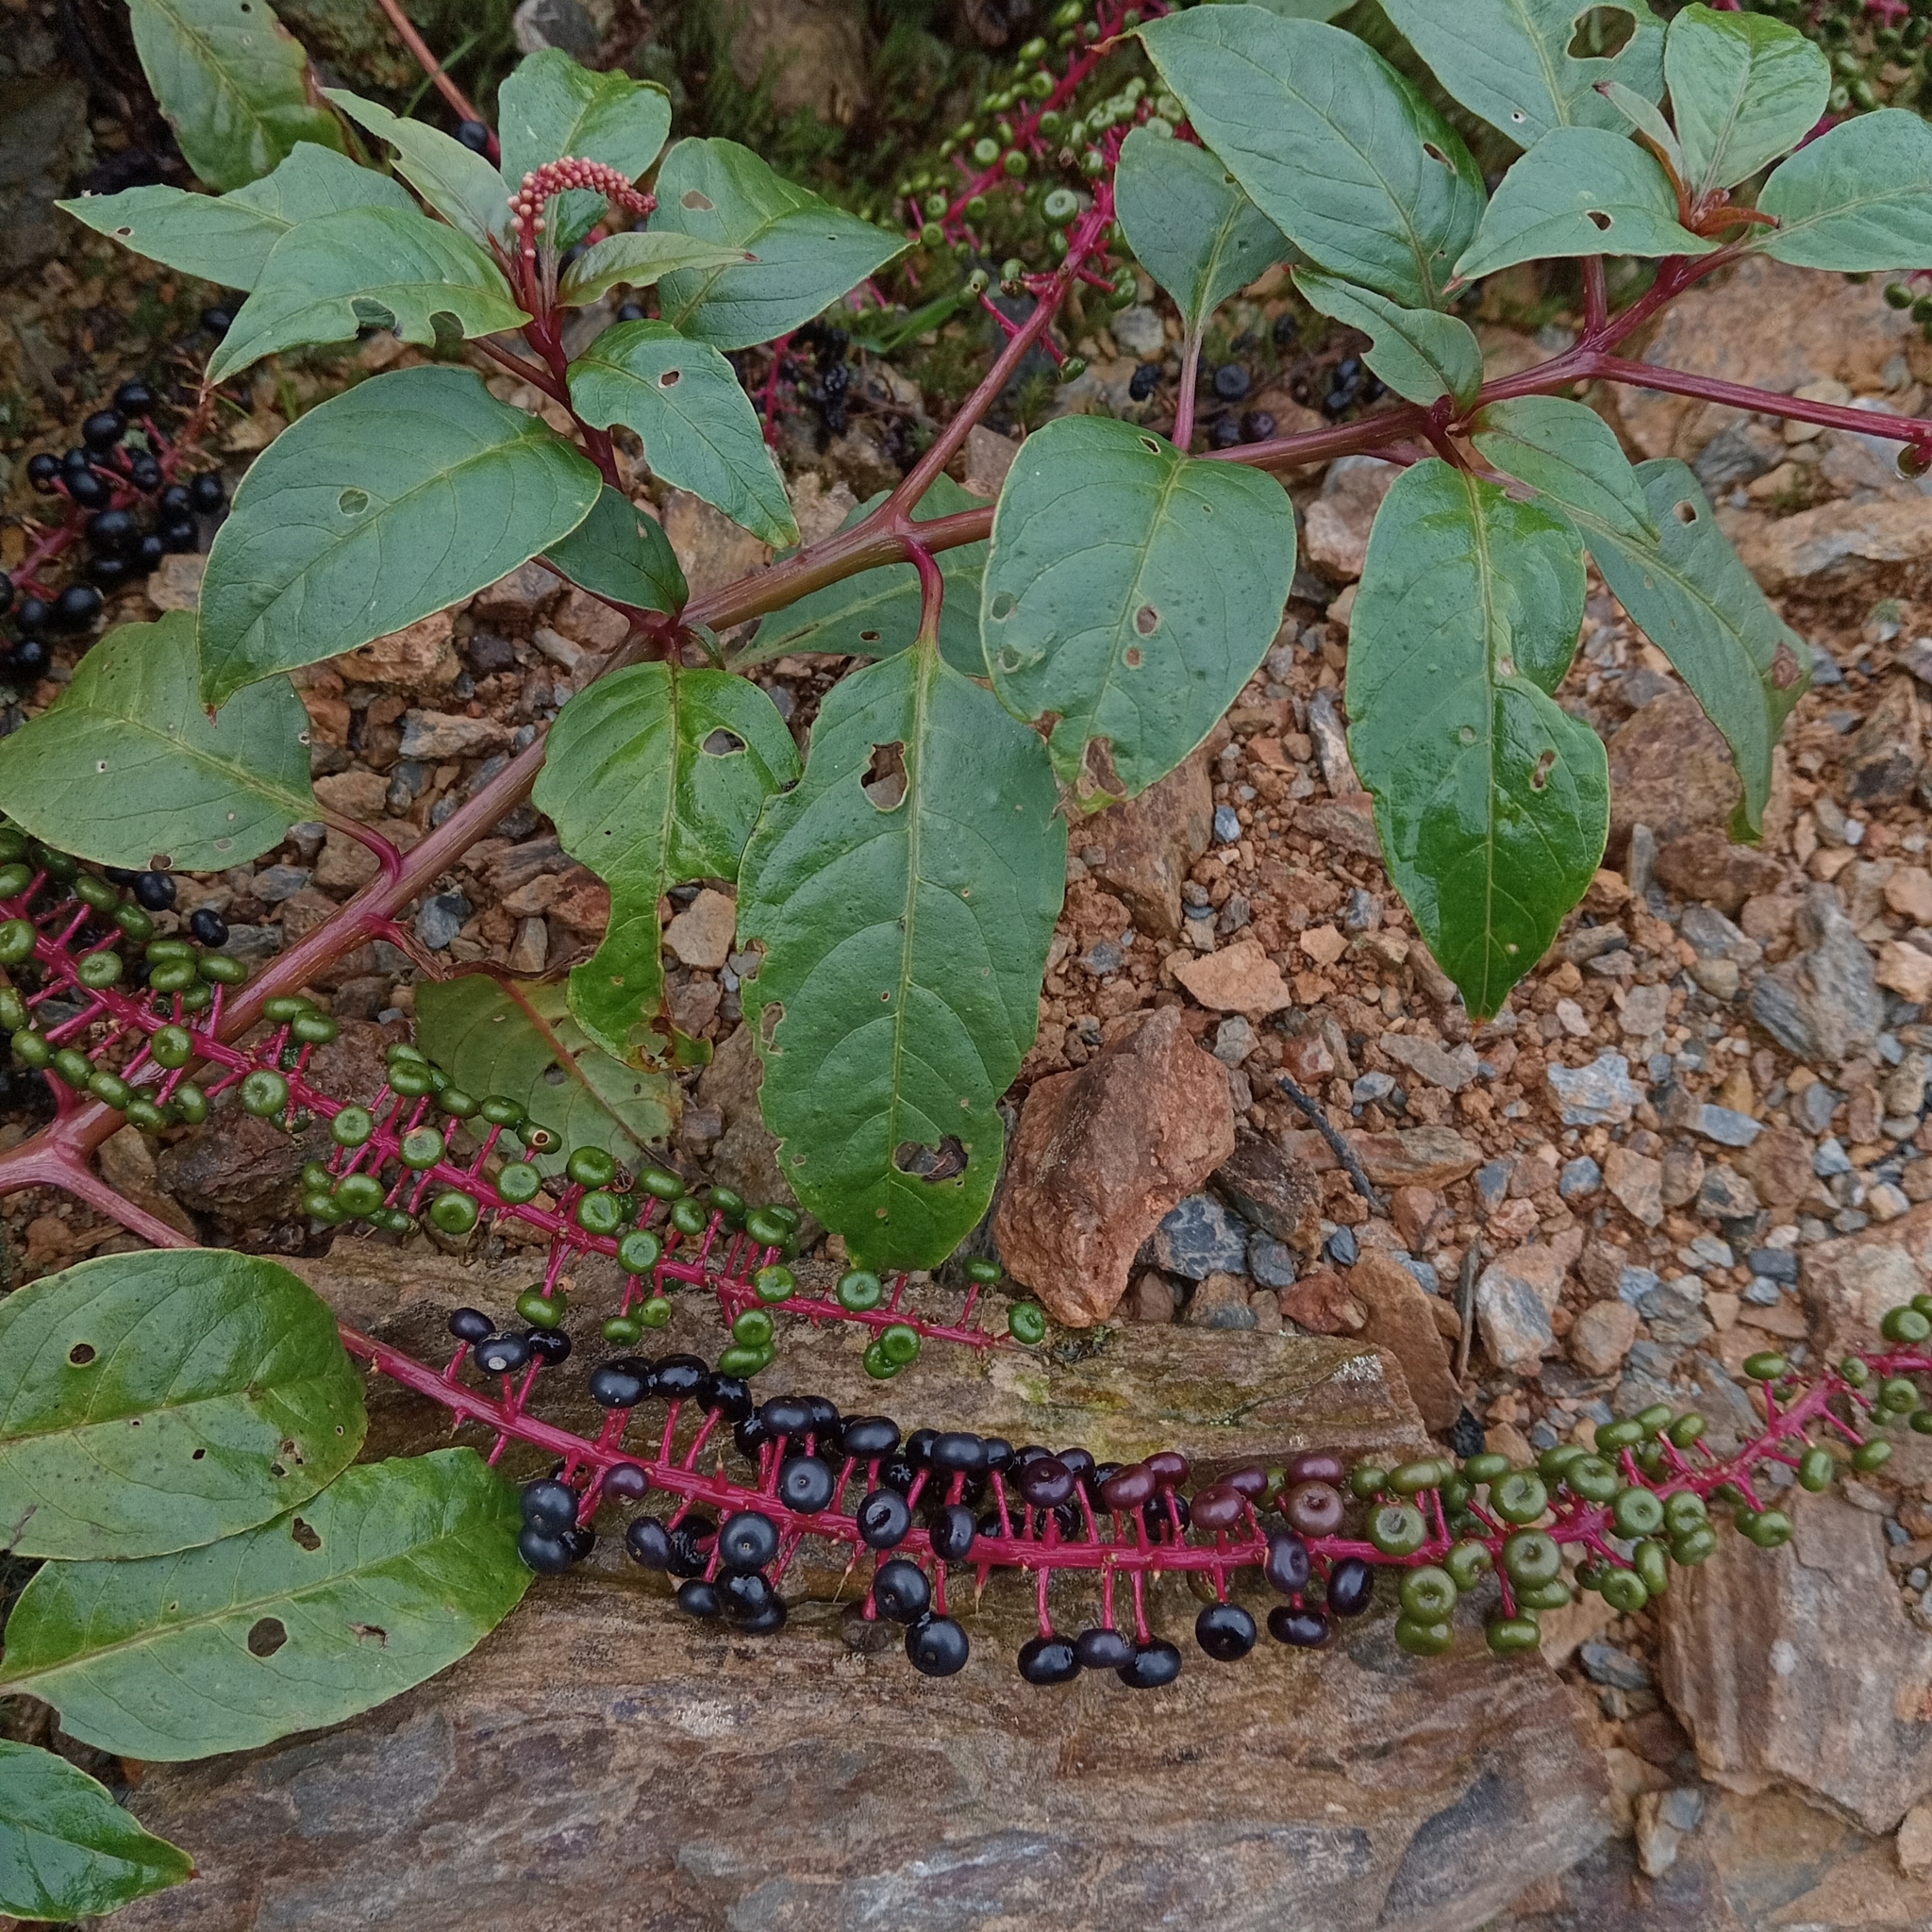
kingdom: Plantae
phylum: Tracheophyta
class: Magnoliopsida
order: Caryophyllales
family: Phytolaccaceae
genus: Phytolacca
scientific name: Phytolacca rivinoides
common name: Venezuelan pokeweed
